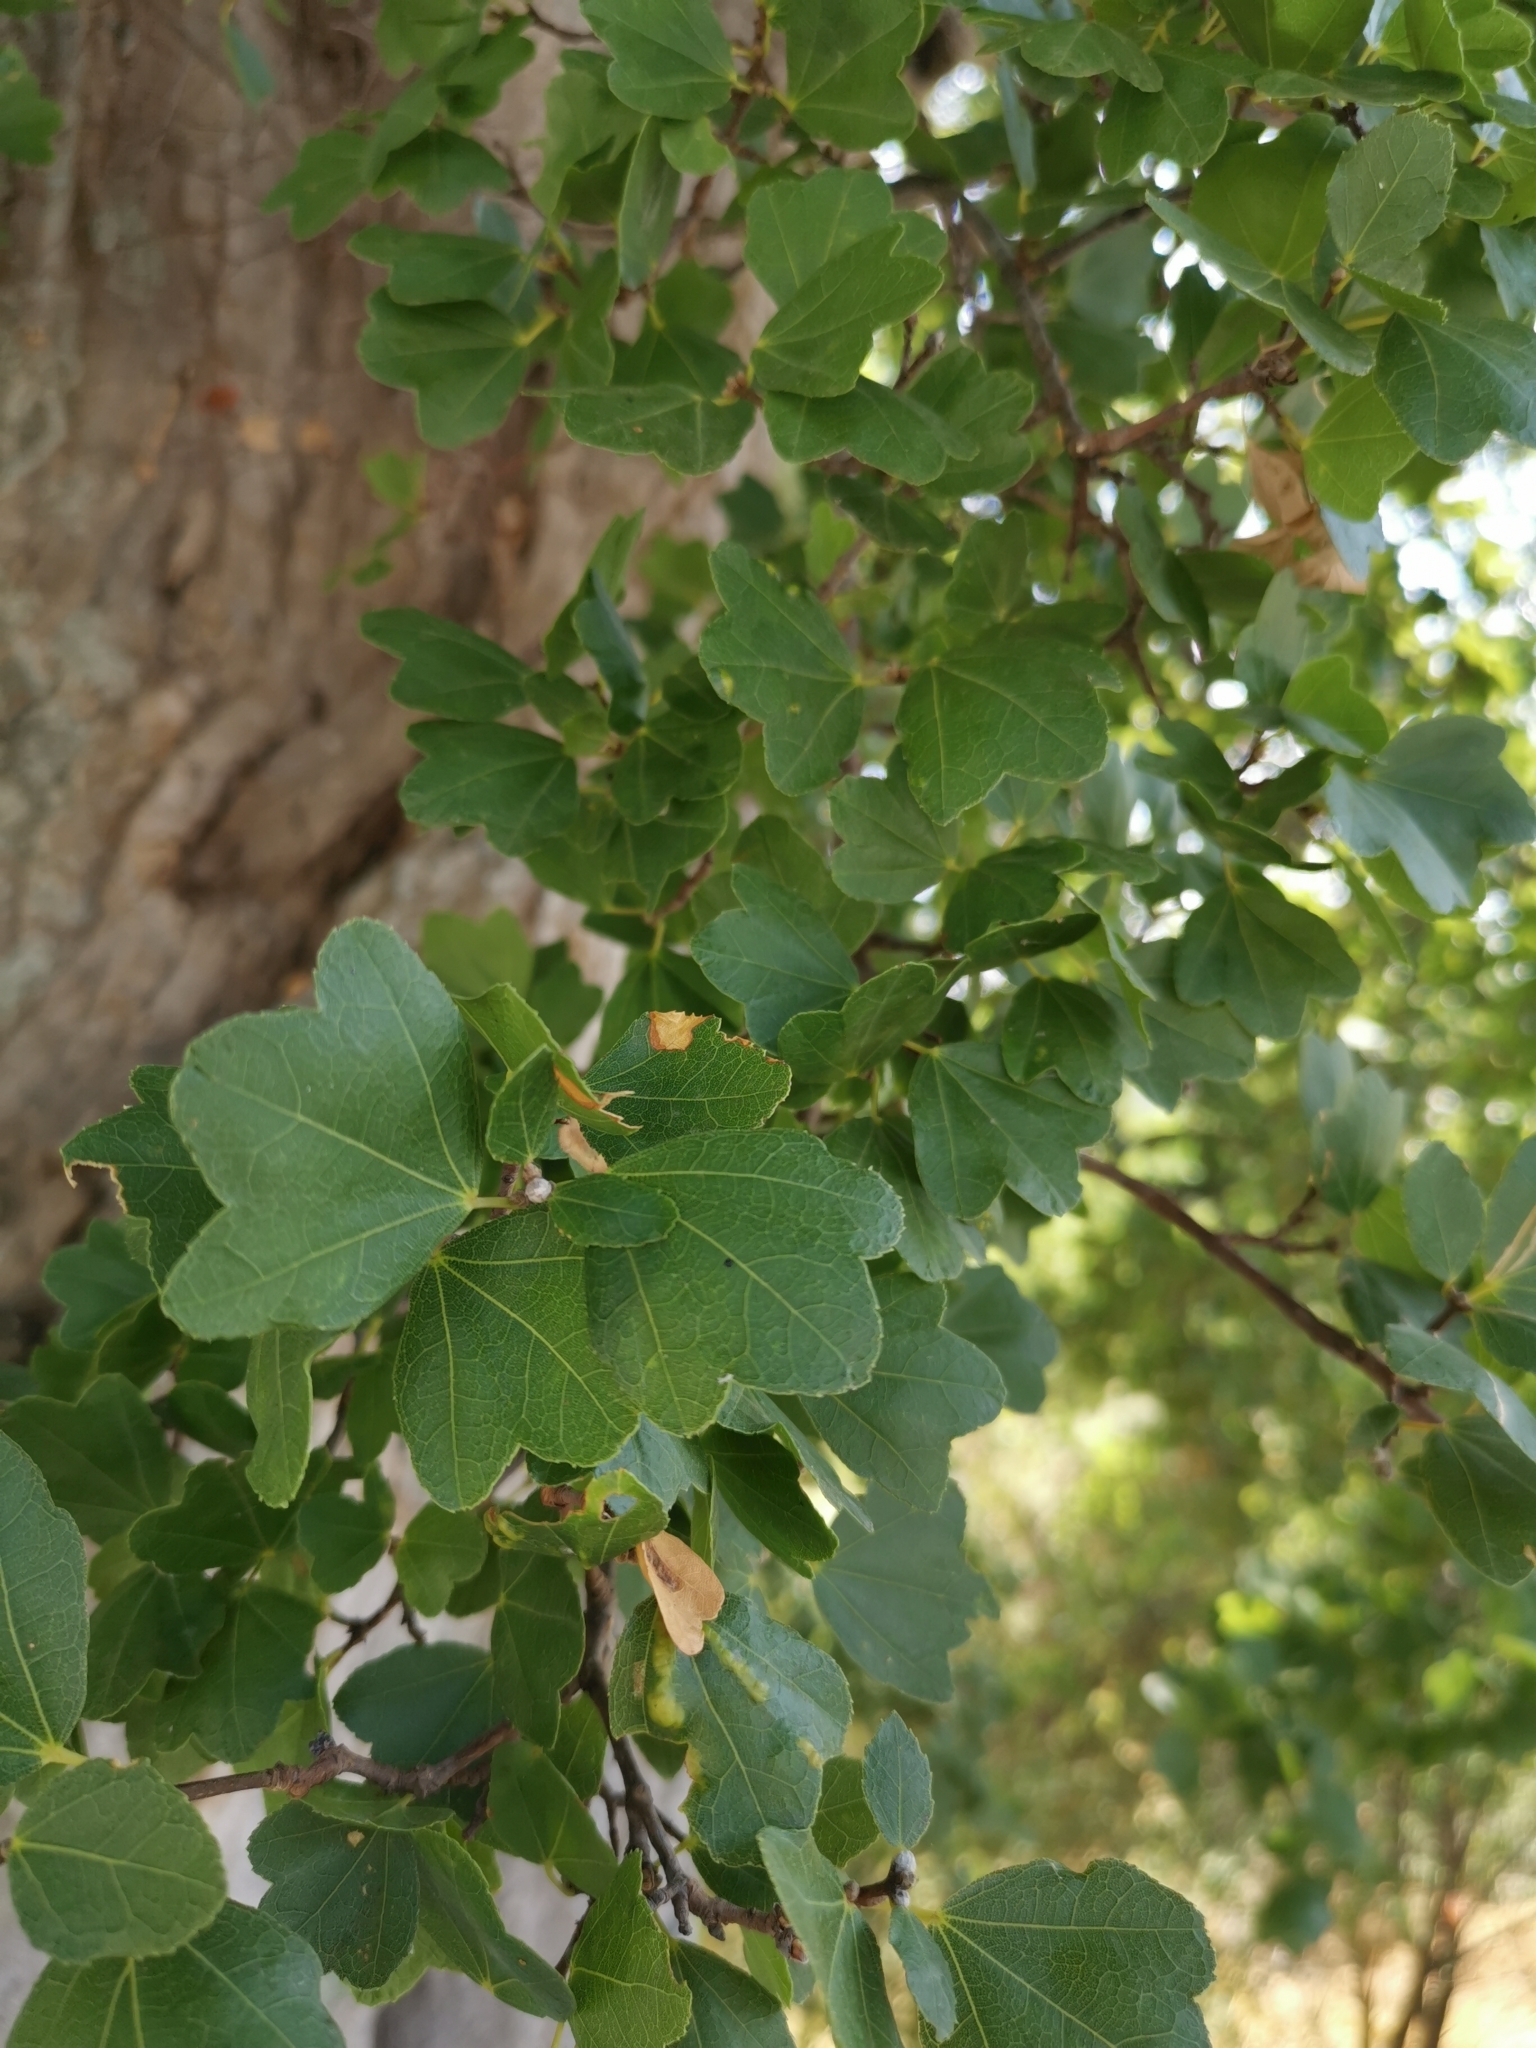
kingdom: Plantae
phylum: Tracheophyta
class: Magnoliopsida
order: Sapindales
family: Sapindaceae
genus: Acer
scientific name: Acer sempervirens
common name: Cretan maple
